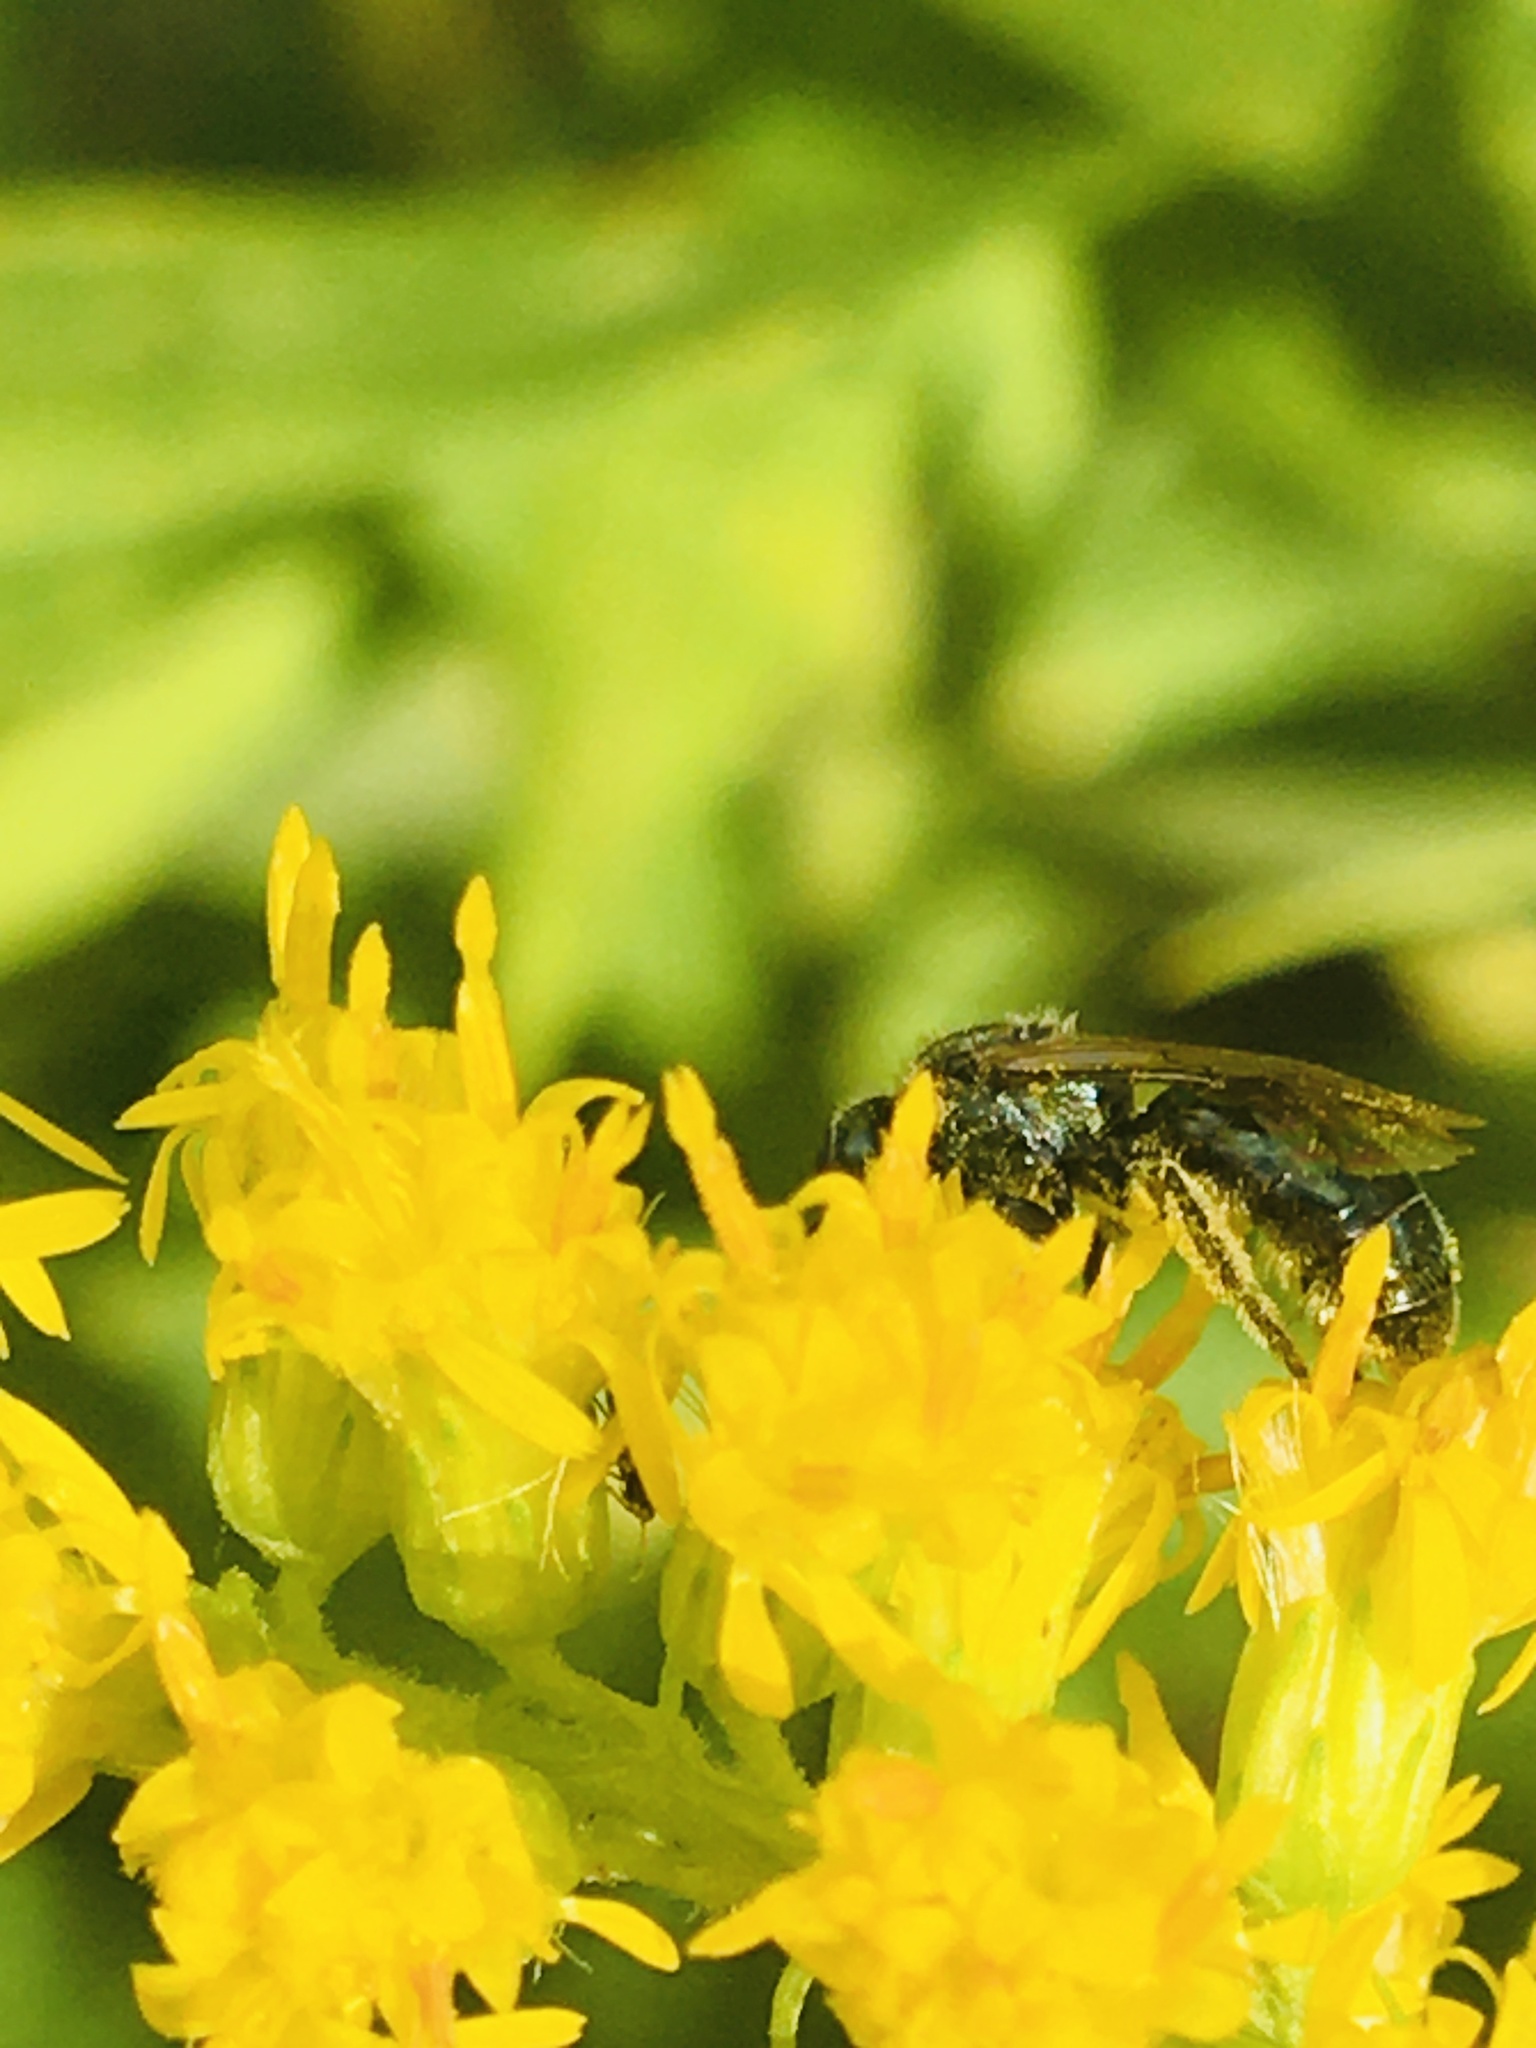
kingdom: Animalia
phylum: Arthropoda
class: Insecta
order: Hymenoptera
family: Halictidae
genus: Lasioglossum
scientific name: Lasioglossum coeruleum
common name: Deep-blue sweat bee
